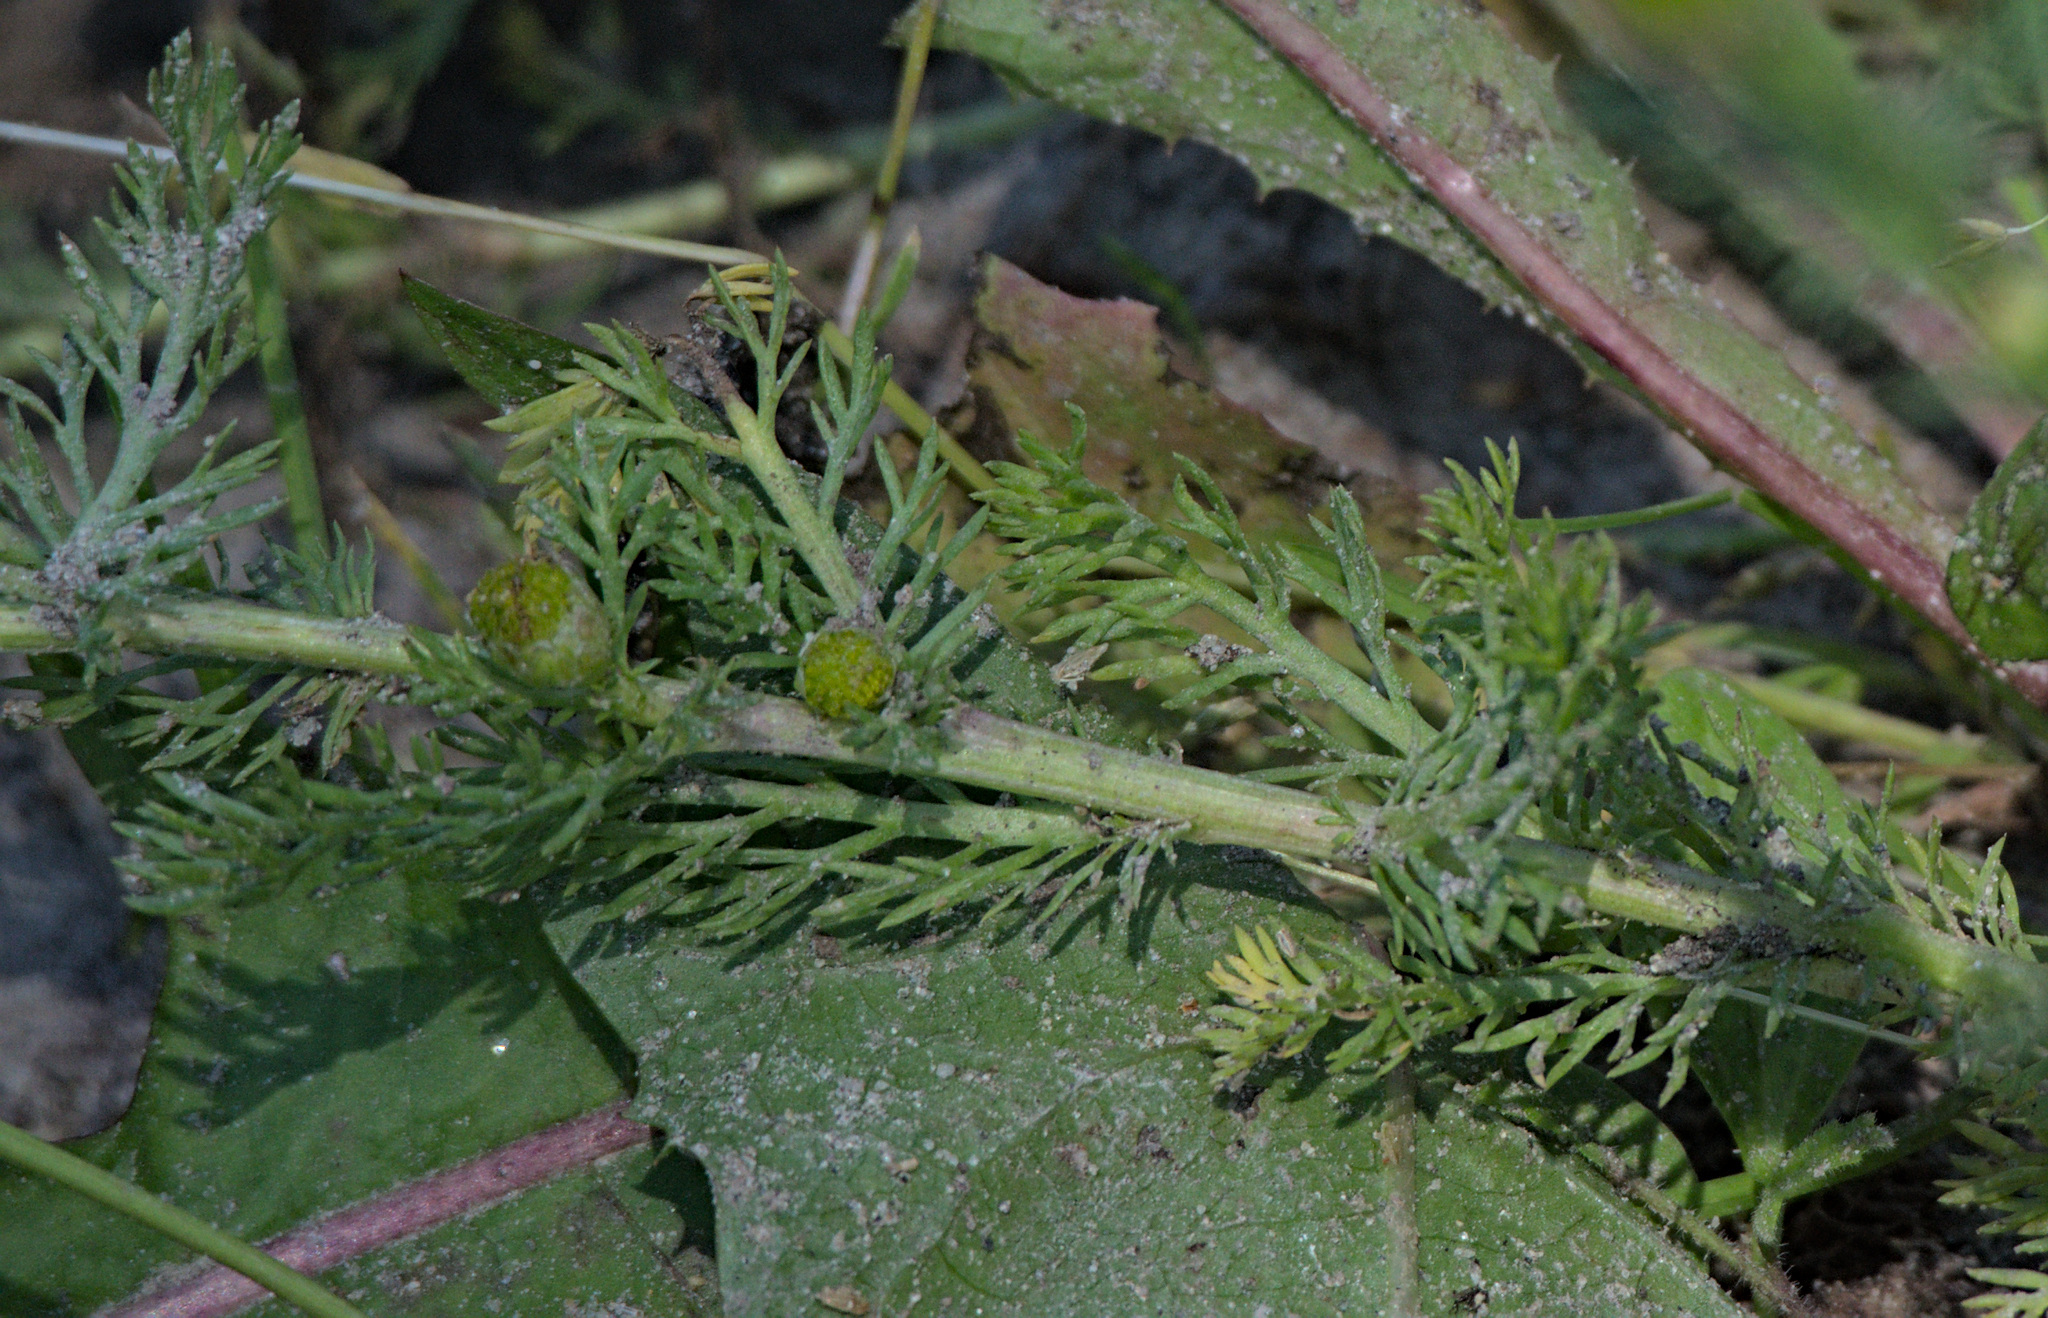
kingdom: Plantae
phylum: Tracheophyta
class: Magnoliopsida
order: Asterales
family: Asteraceae
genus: Matricaria
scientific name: Matricaria discoidea
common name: Disc mayweed
